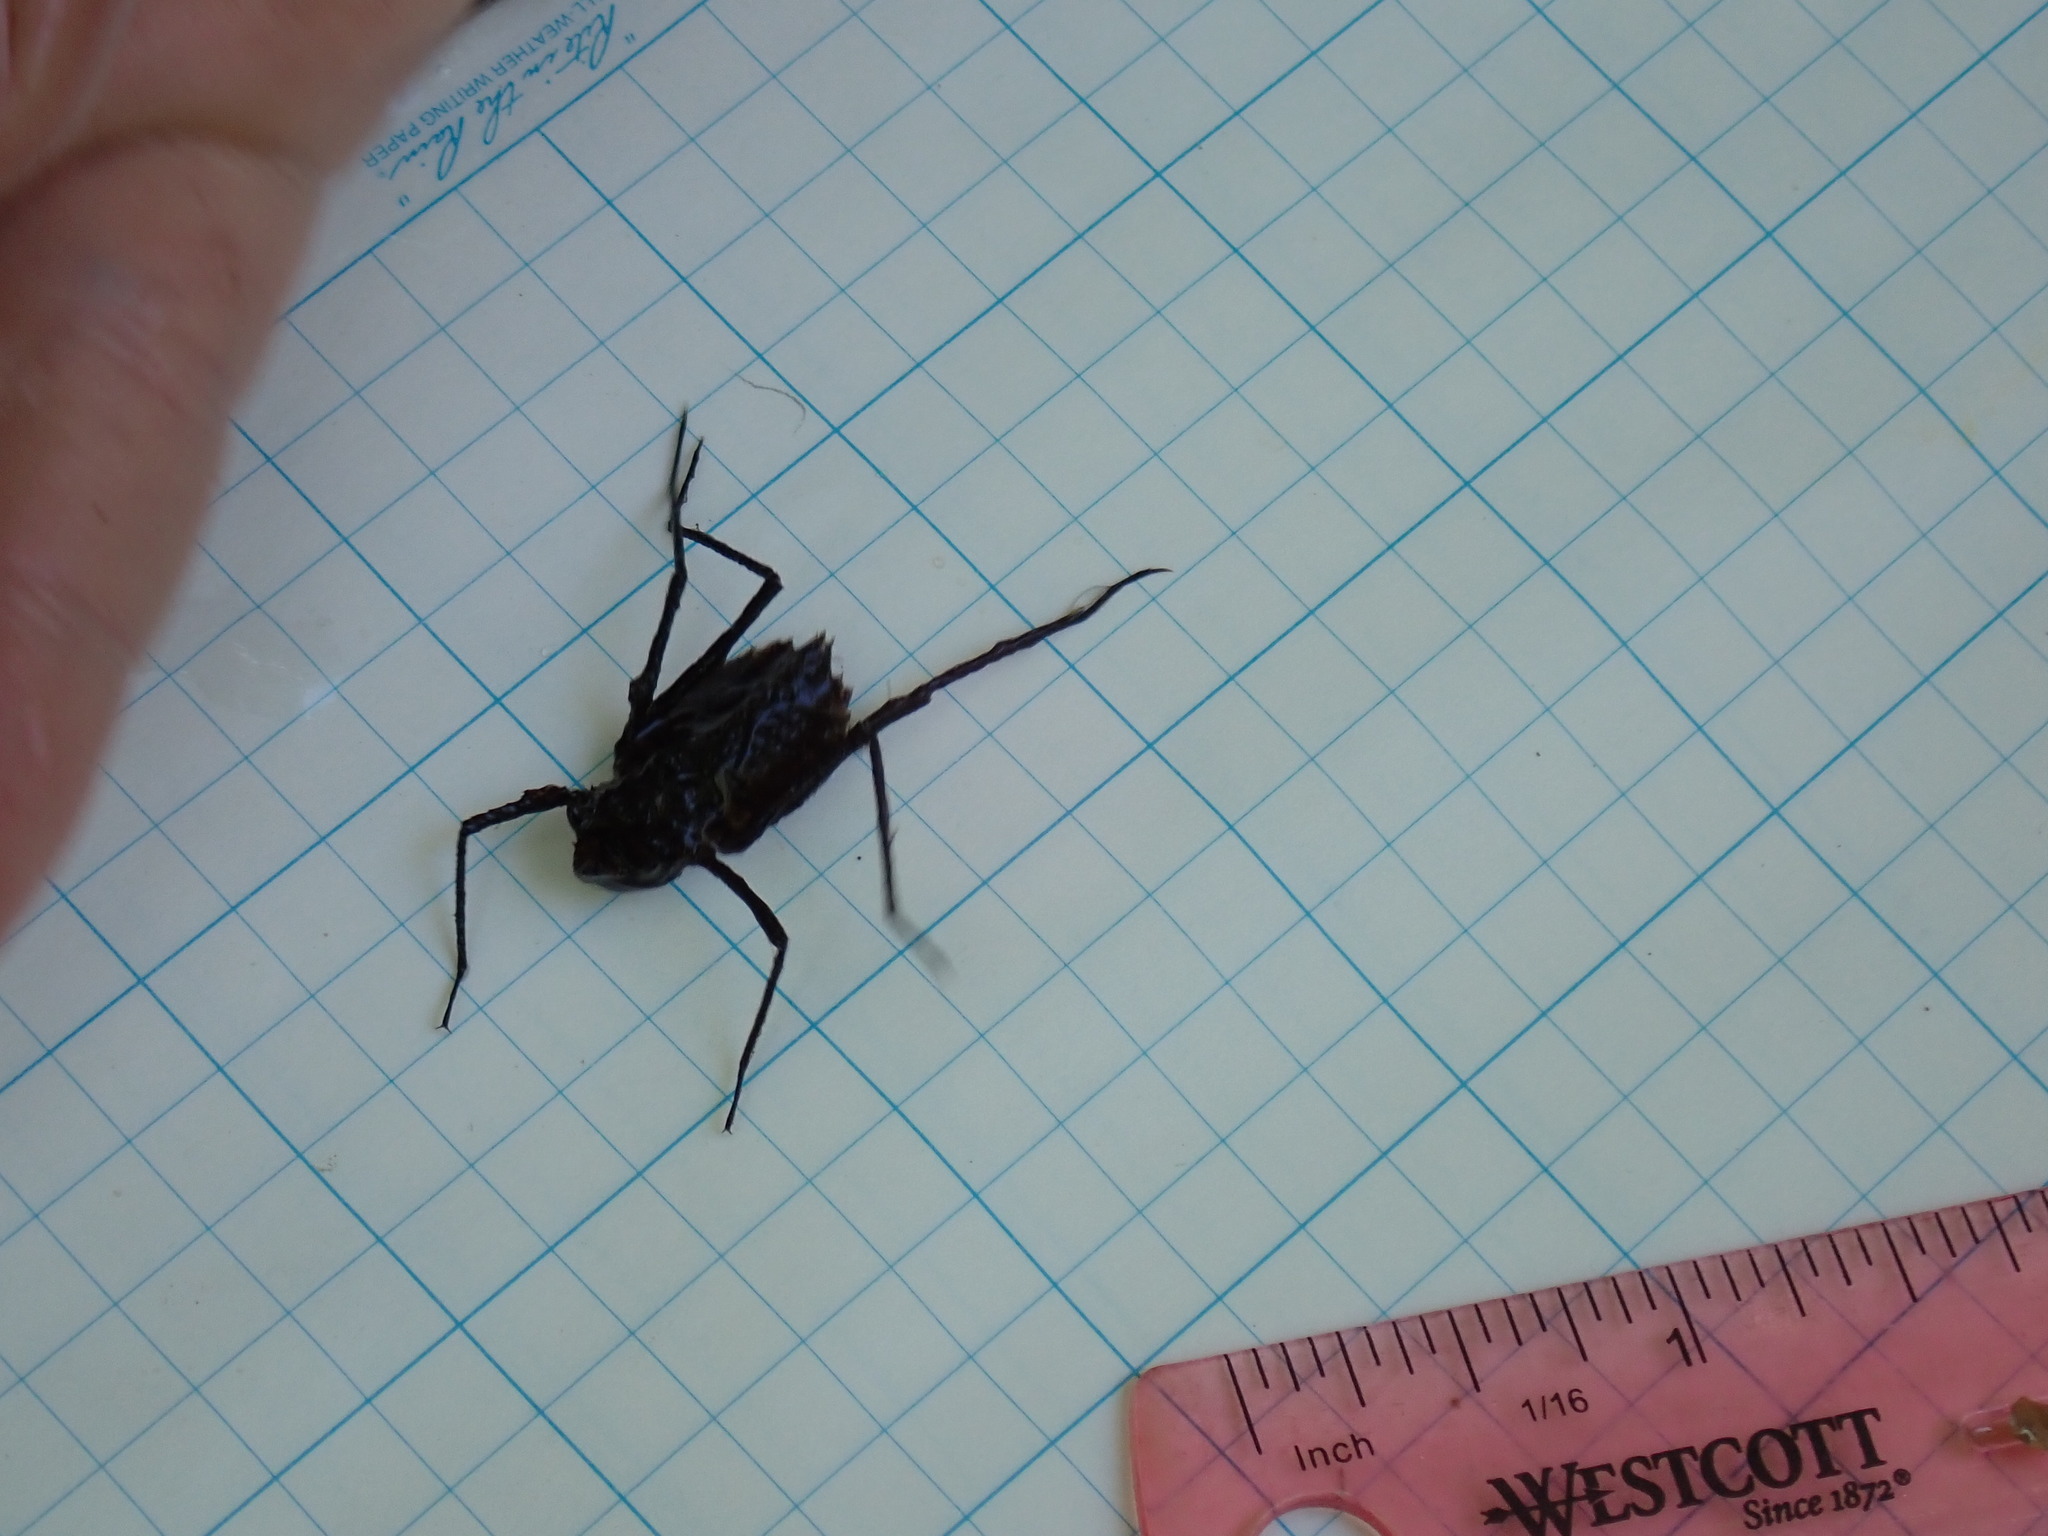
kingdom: Animalia
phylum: Arthropoda
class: Insecta
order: Odonata
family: Macromiidae
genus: Macromia
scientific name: Macromia illinoiensis
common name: Swift river cruiser
